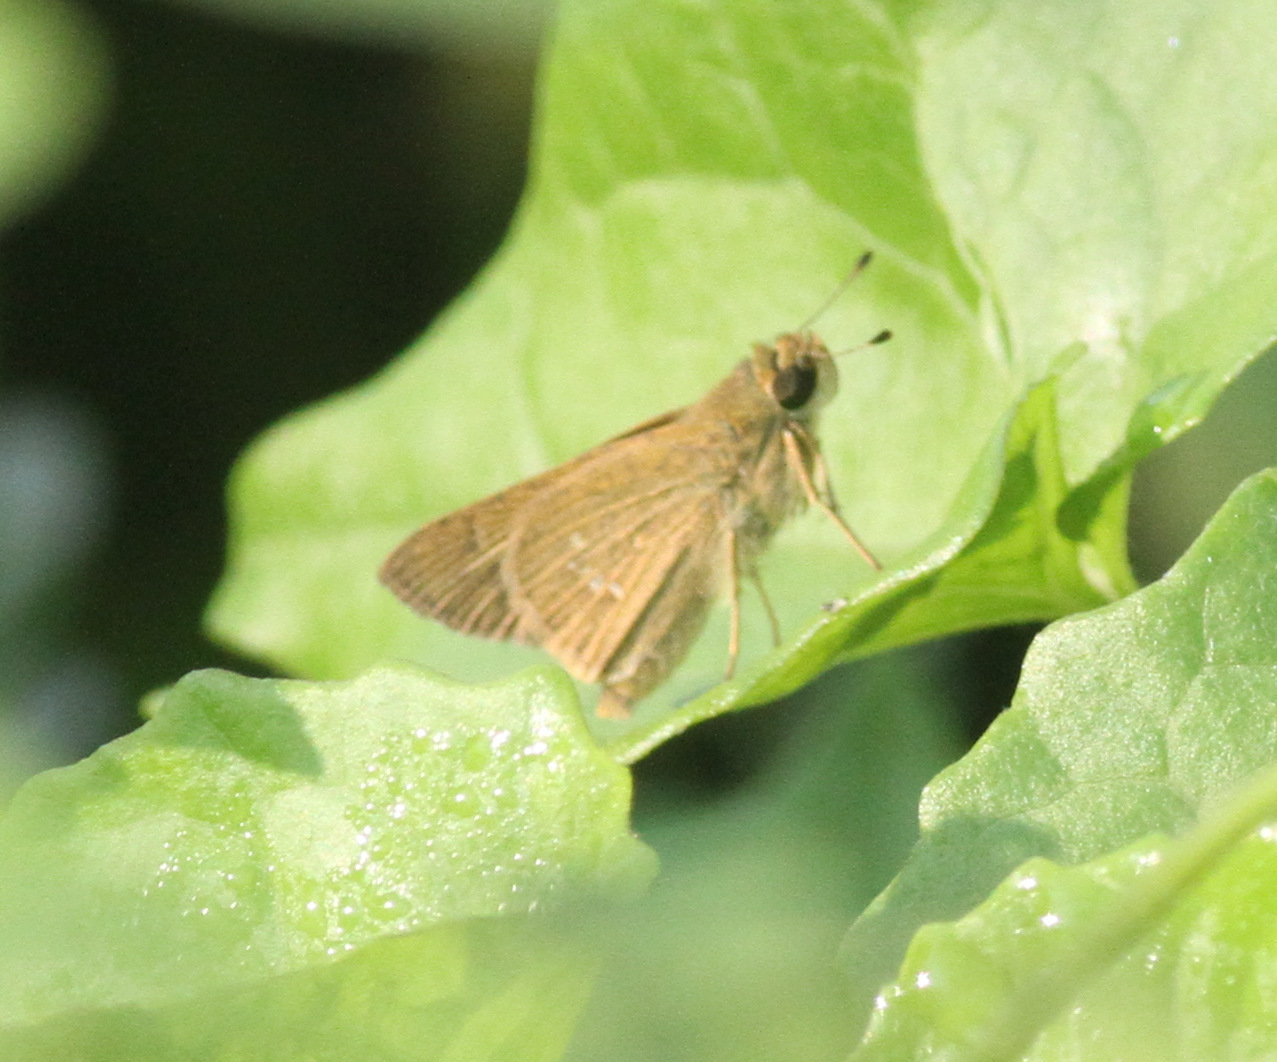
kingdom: Animalia
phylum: Arthropoda
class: Insecta
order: Lepidoptera
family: Hesperiidae
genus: Parnara
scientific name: Parnara naso
